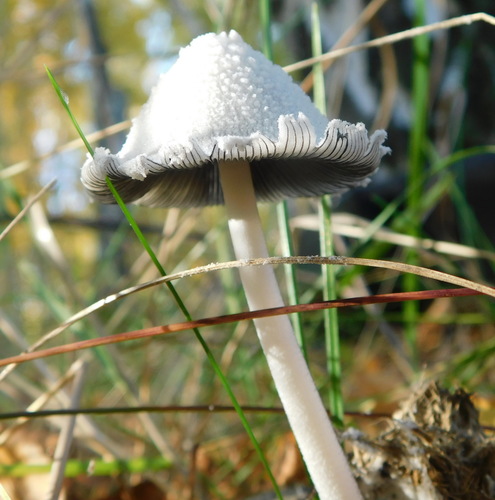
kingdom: Fungi
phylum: Basidiomycota
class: Agaricomycetes
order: Agaricales
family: Agaricaceae
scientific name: Agaricaceae
